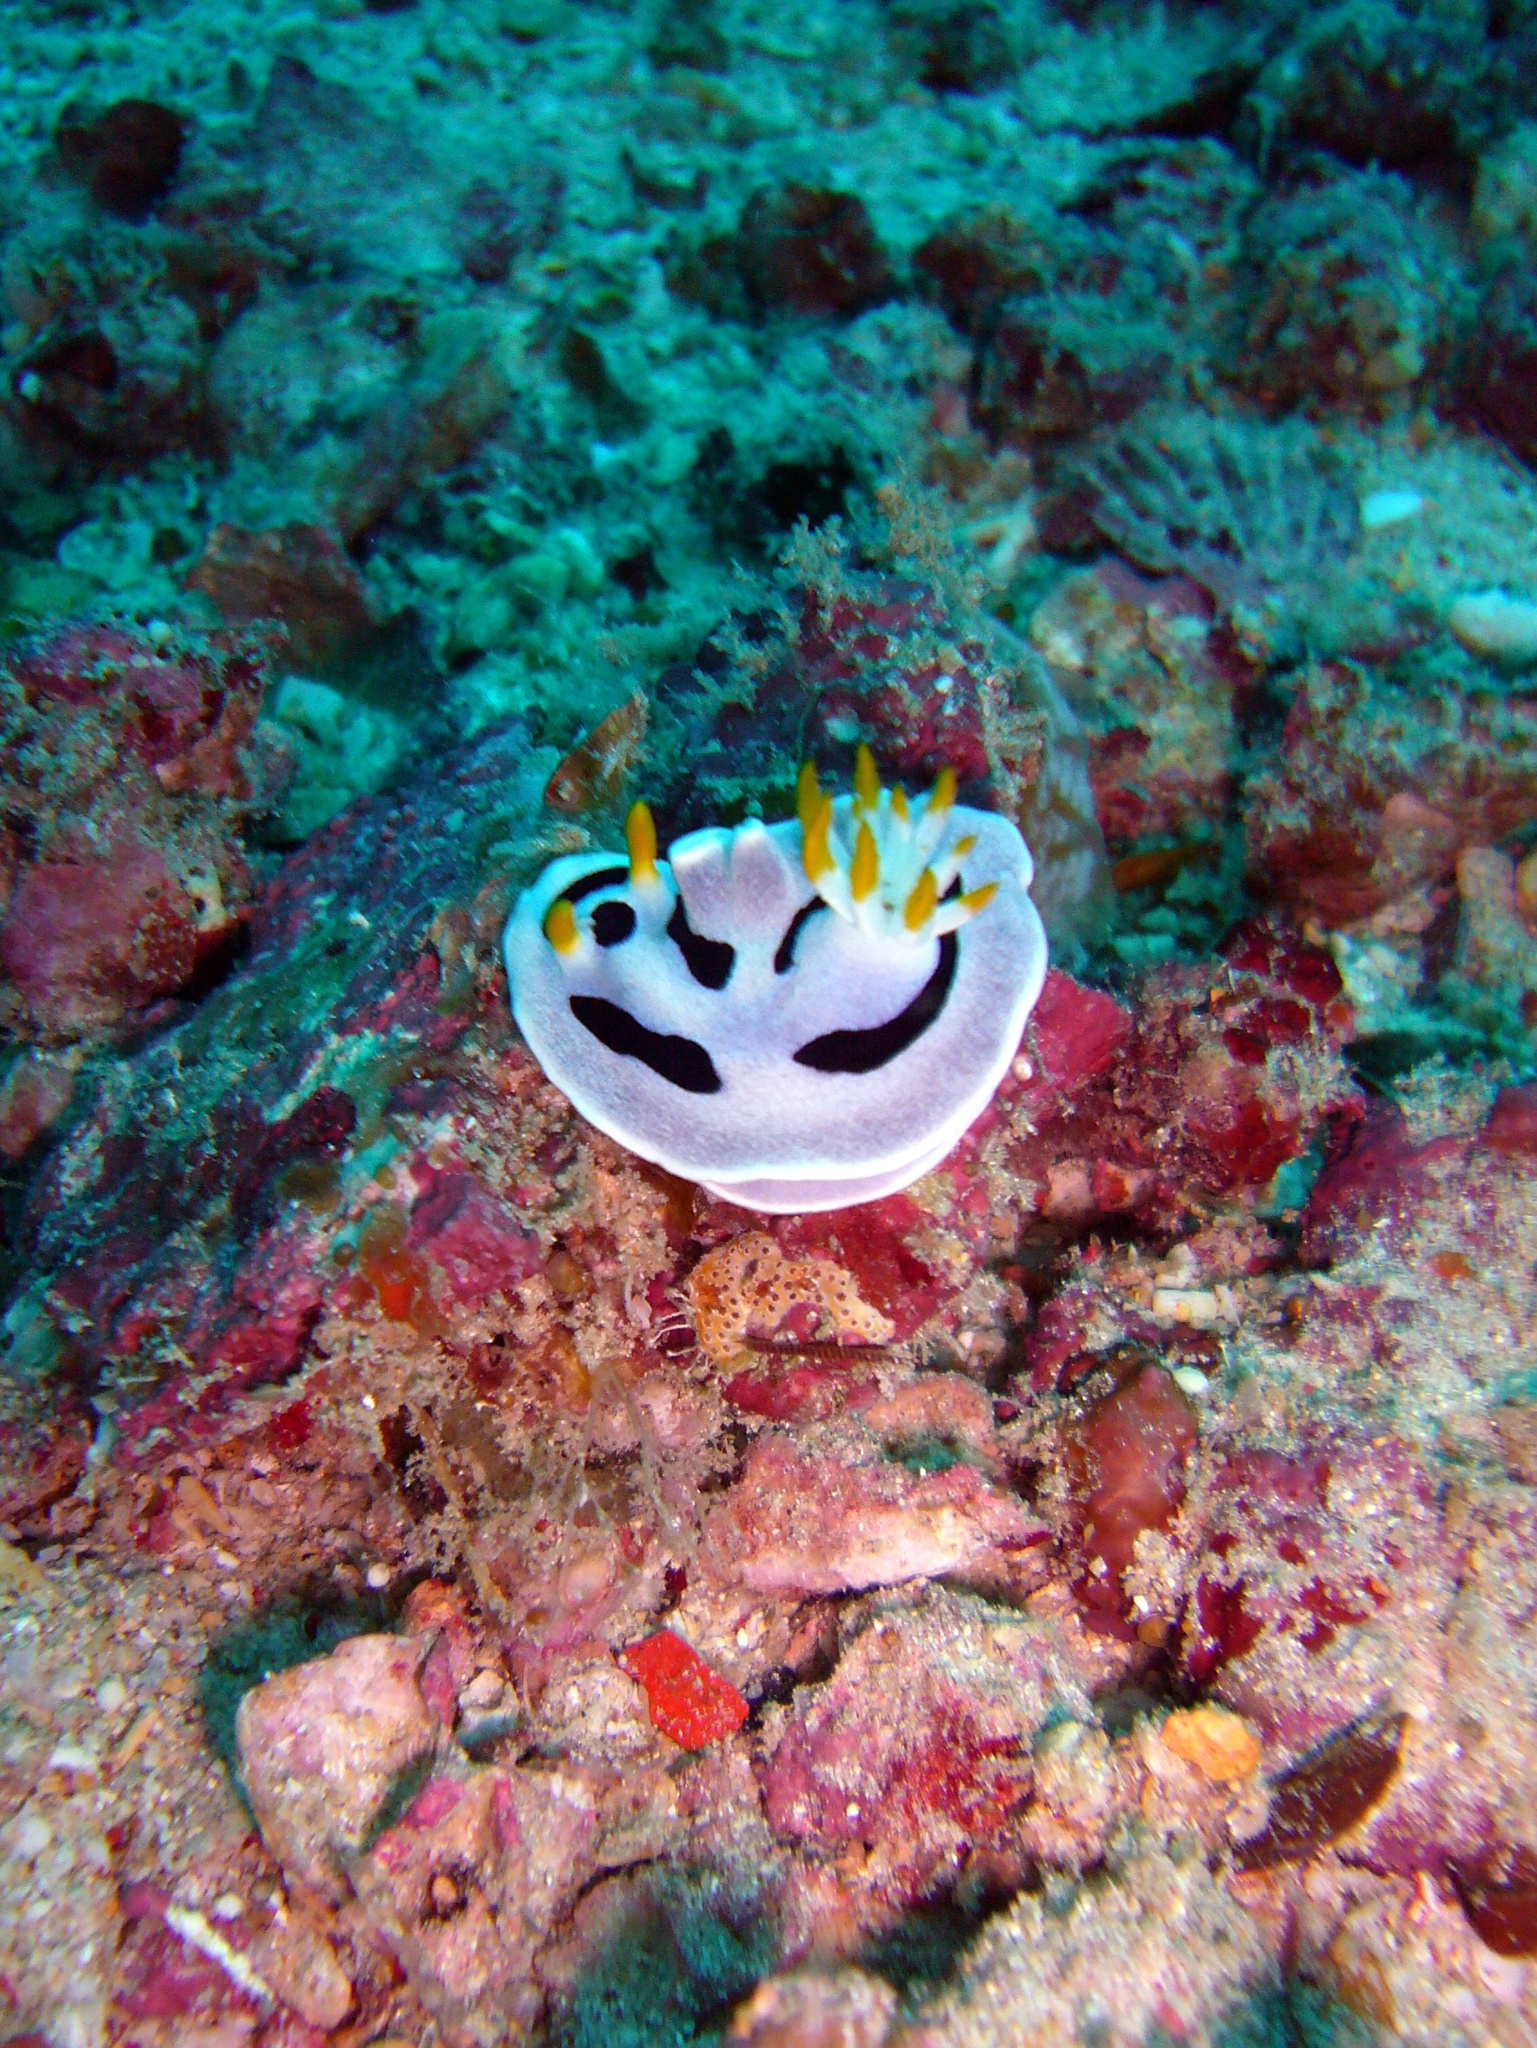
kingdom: Animalia
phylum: Mollusca
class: Gastropoda
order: Nudibranchia
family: Chromodorididae
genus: Chromodoris
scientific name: Chromodoris alcalai
